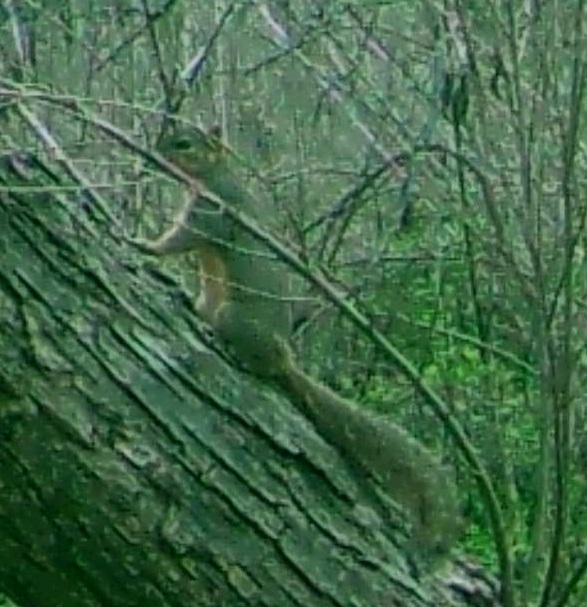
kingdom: Animalia
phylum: Chordata
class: Mammalia
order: Rodentia
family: Sciuridae
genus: Sciurus
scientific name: Sciurus niger
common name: Fox squirrel
